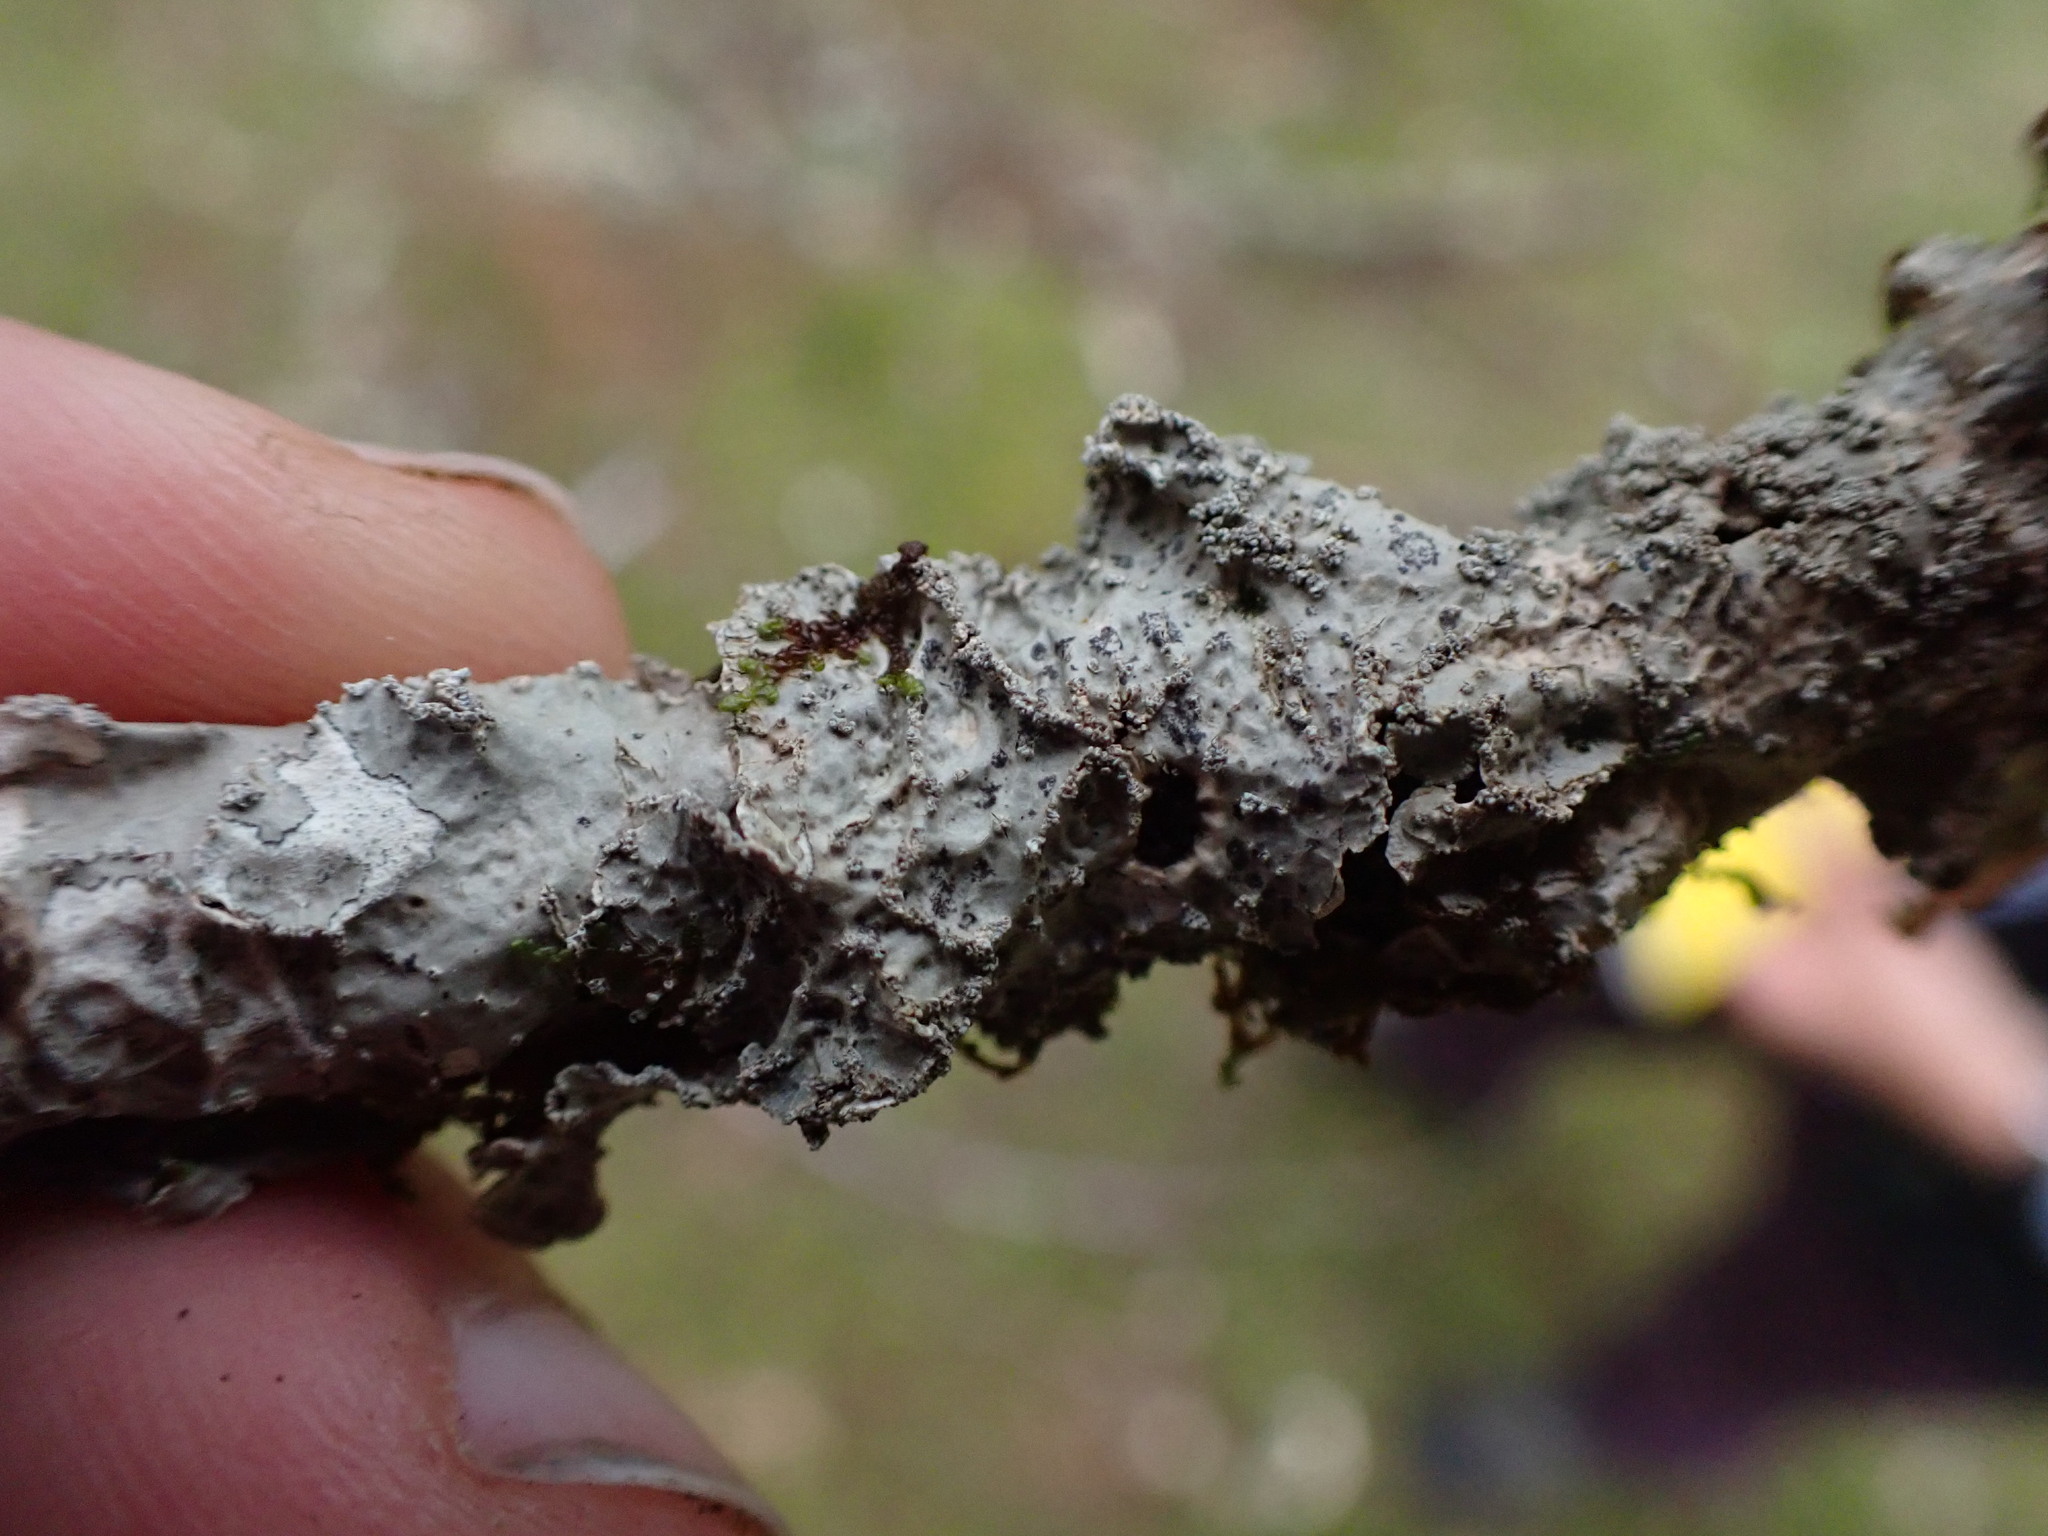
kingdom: Fungi
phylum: Ascomycota
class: Lecanoromycetes
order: Peltigerales
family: Nephromataceae
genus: Nephroma
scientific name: Nephroma occultum
